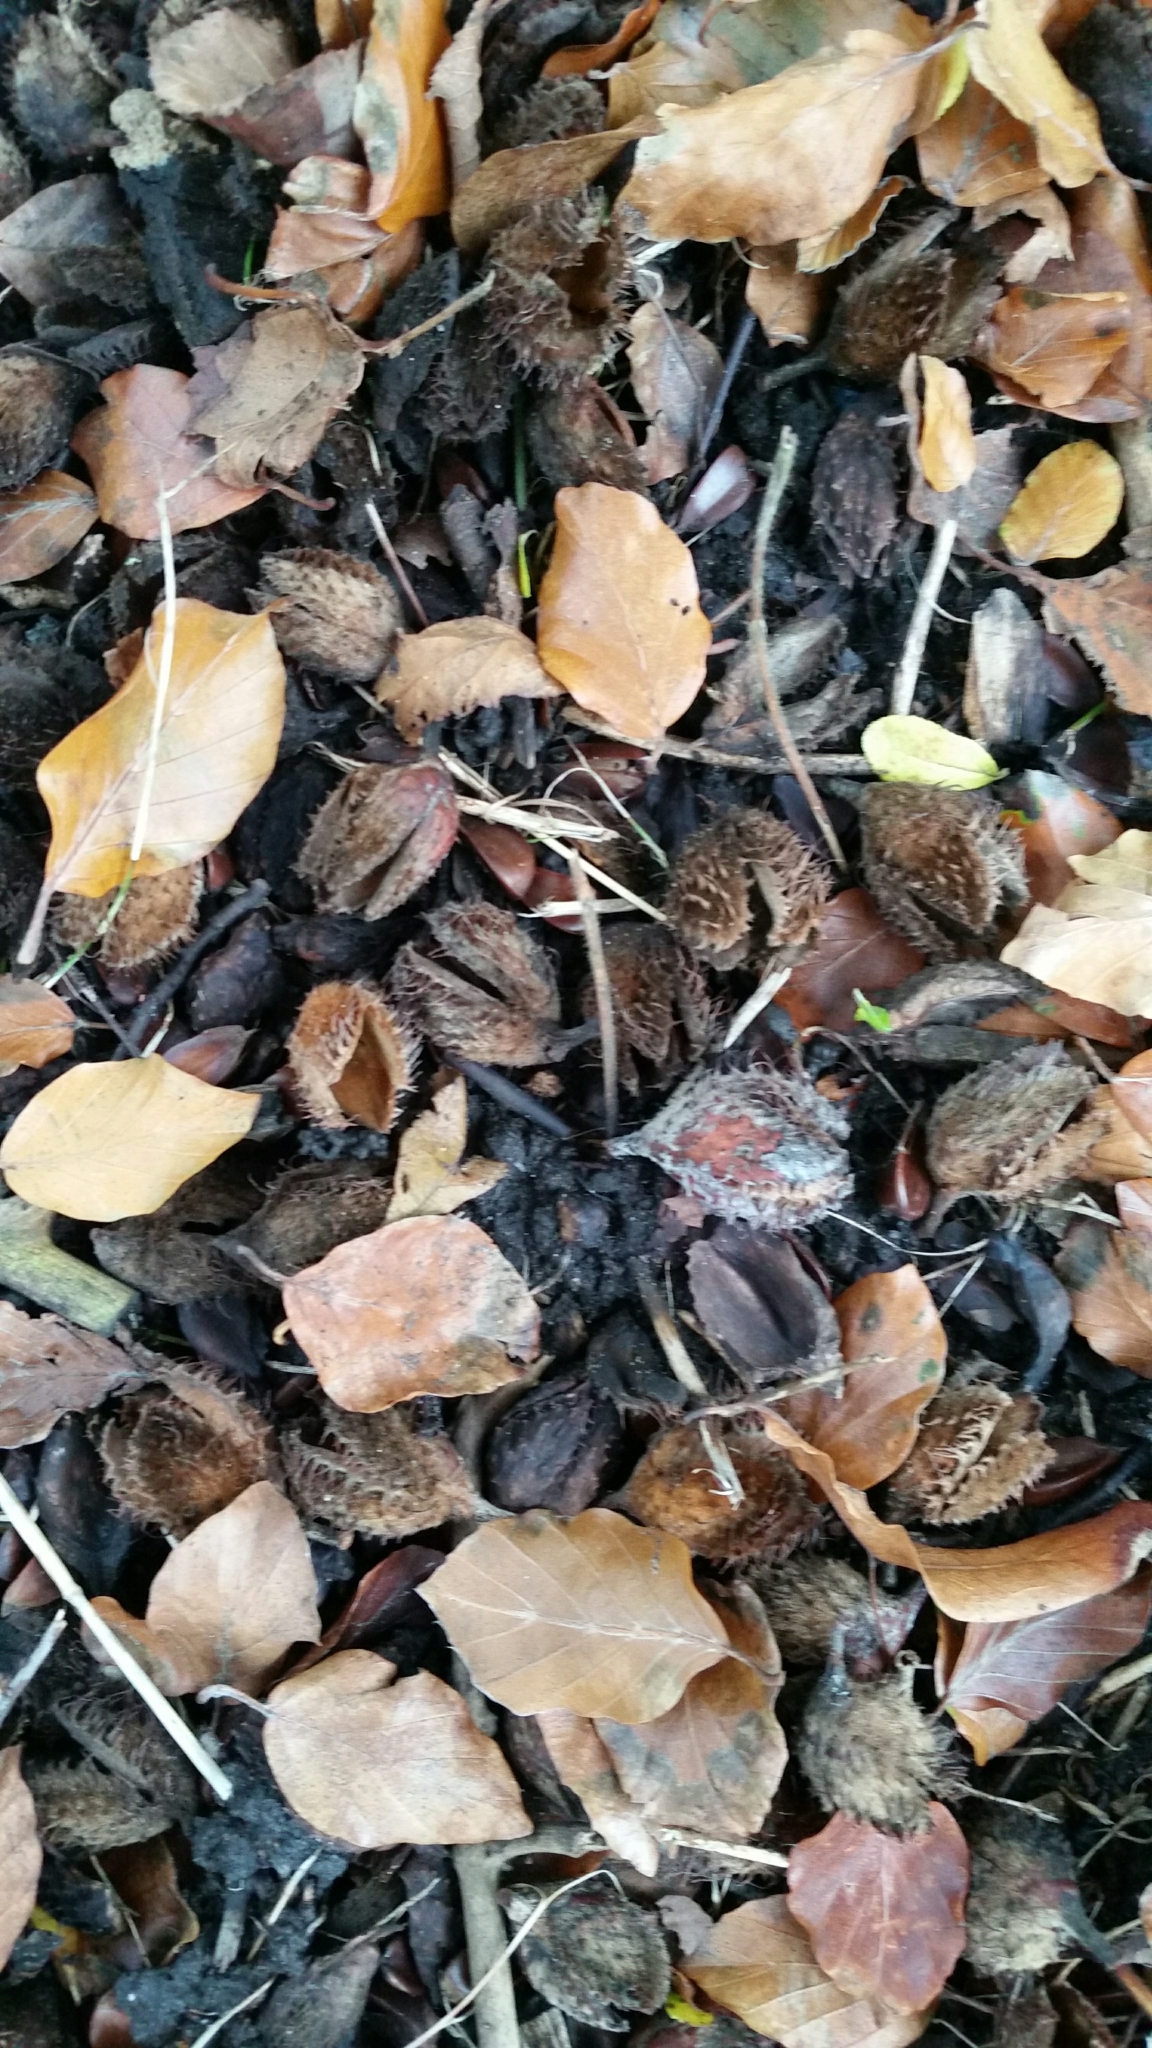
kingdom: Plantae
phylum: Tracheophyta
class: Magnoliopsida
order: Fagales
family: Fagaceae
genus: Fagus
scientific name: Fagus sylvatica
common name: Beech
